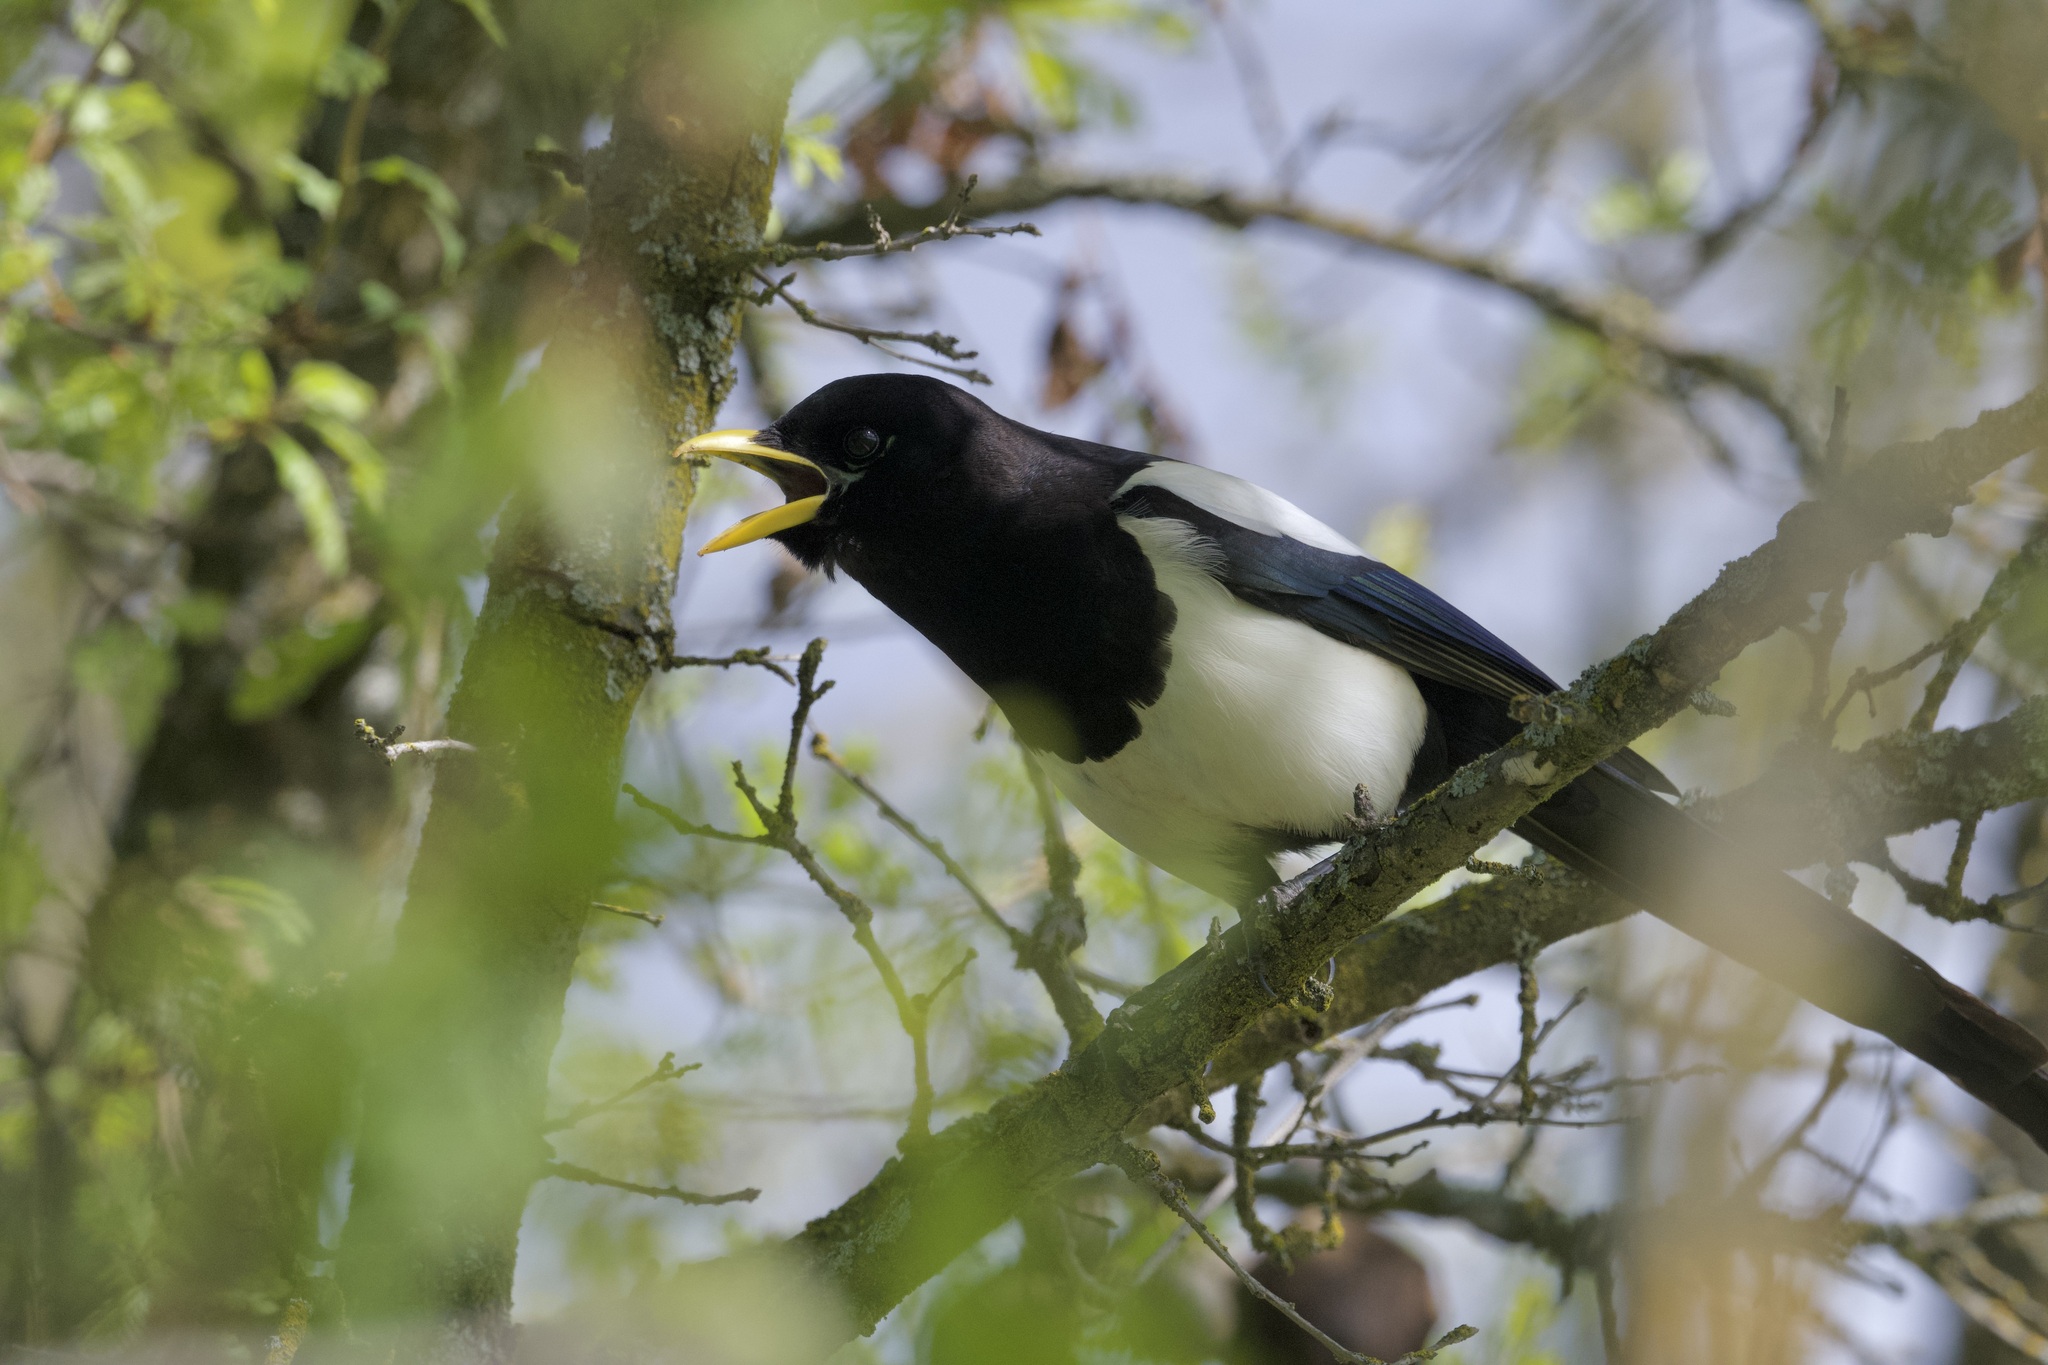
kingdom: Animalia
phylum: Chordata
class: Aves
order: Passeriformes
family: Corvidae
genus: Pica
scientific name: Pica nuttalli
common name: Yellow-billed magpie
